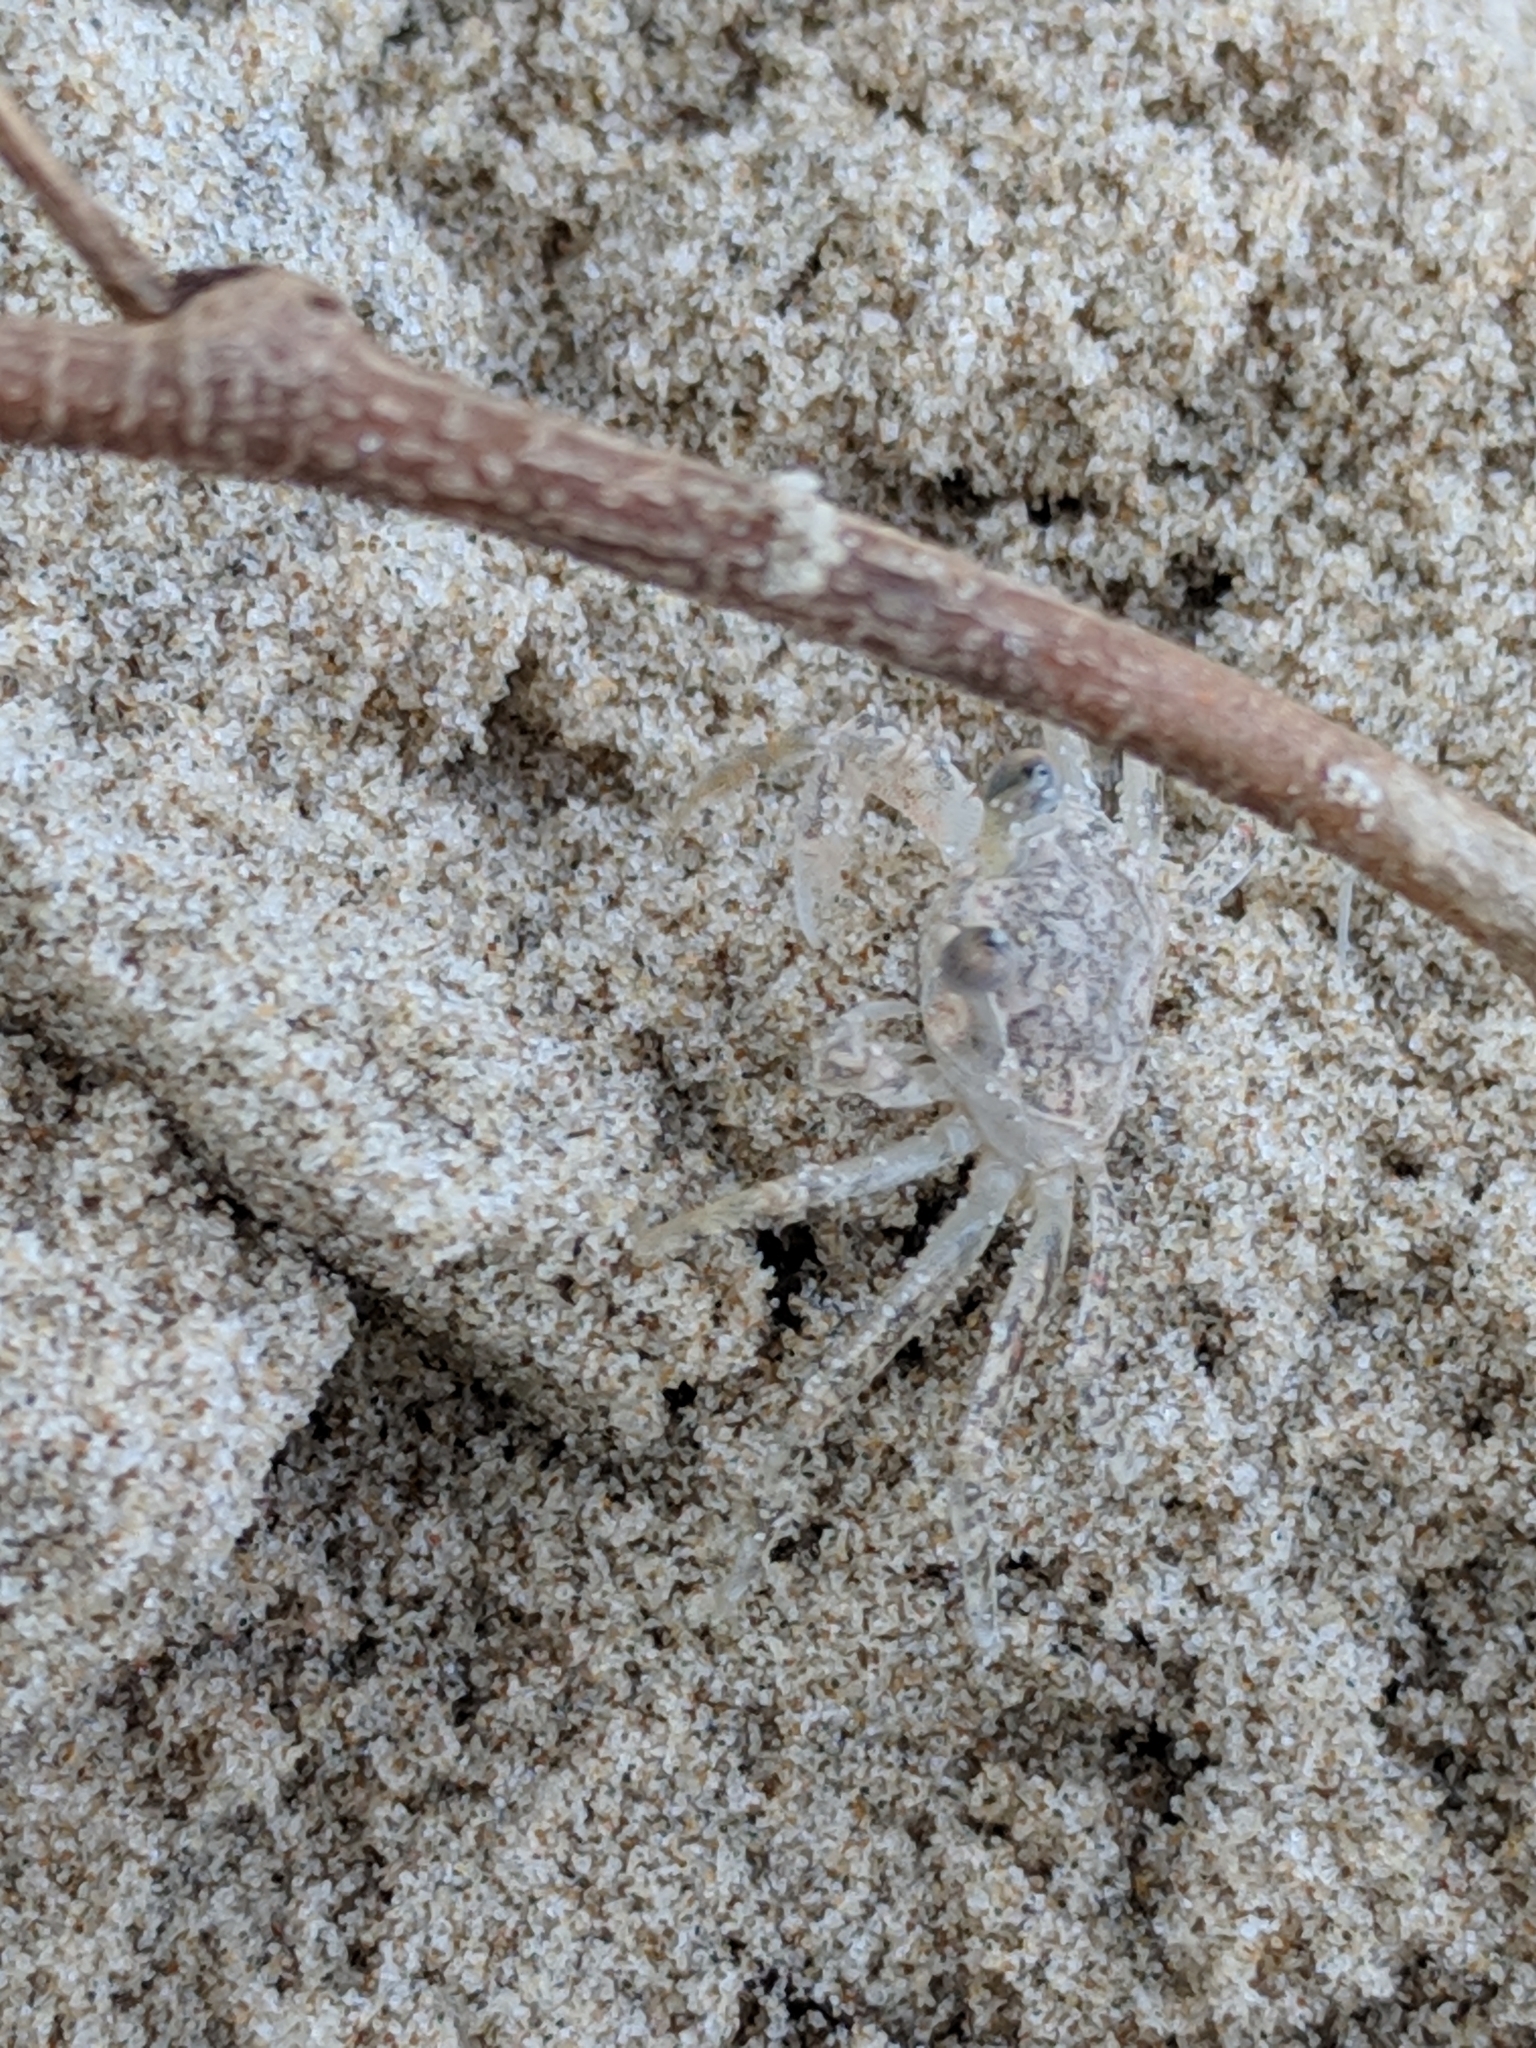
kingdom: Animalia
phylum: Arthropoda
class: Malacostraca
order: Decapoda
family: Ocypodidae
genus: Ocypode
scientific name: Ocypode quadrata
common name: Ghost crab
